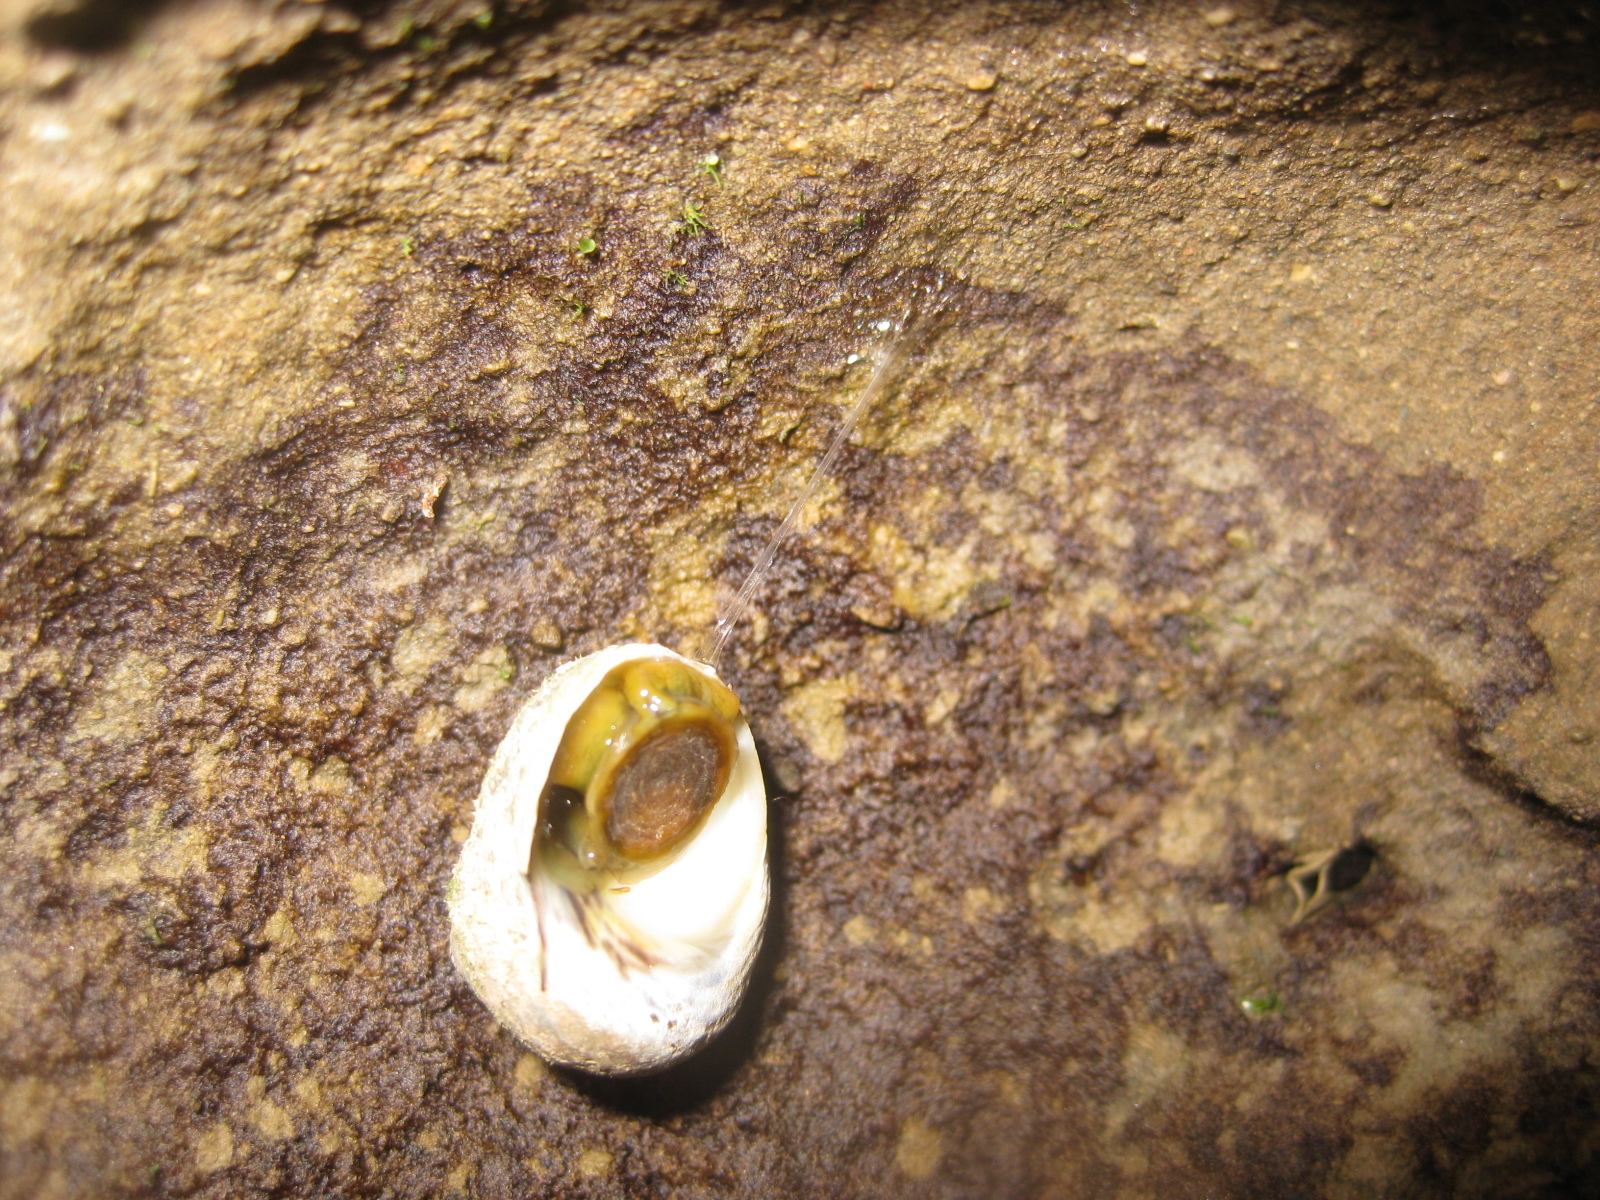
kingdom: Animalia
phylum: Mollusca
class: Gastropoda
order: Trochida
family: Trochidae
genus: Diloma
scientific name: Diloma subrostratum
